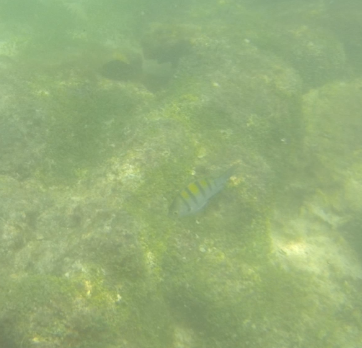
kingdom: Animalia
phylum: Chordata
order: Perciformes
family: Pomacentridae
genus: Abudefduf
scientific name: Abudefduf troschelii
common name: Panamic sergeant major
